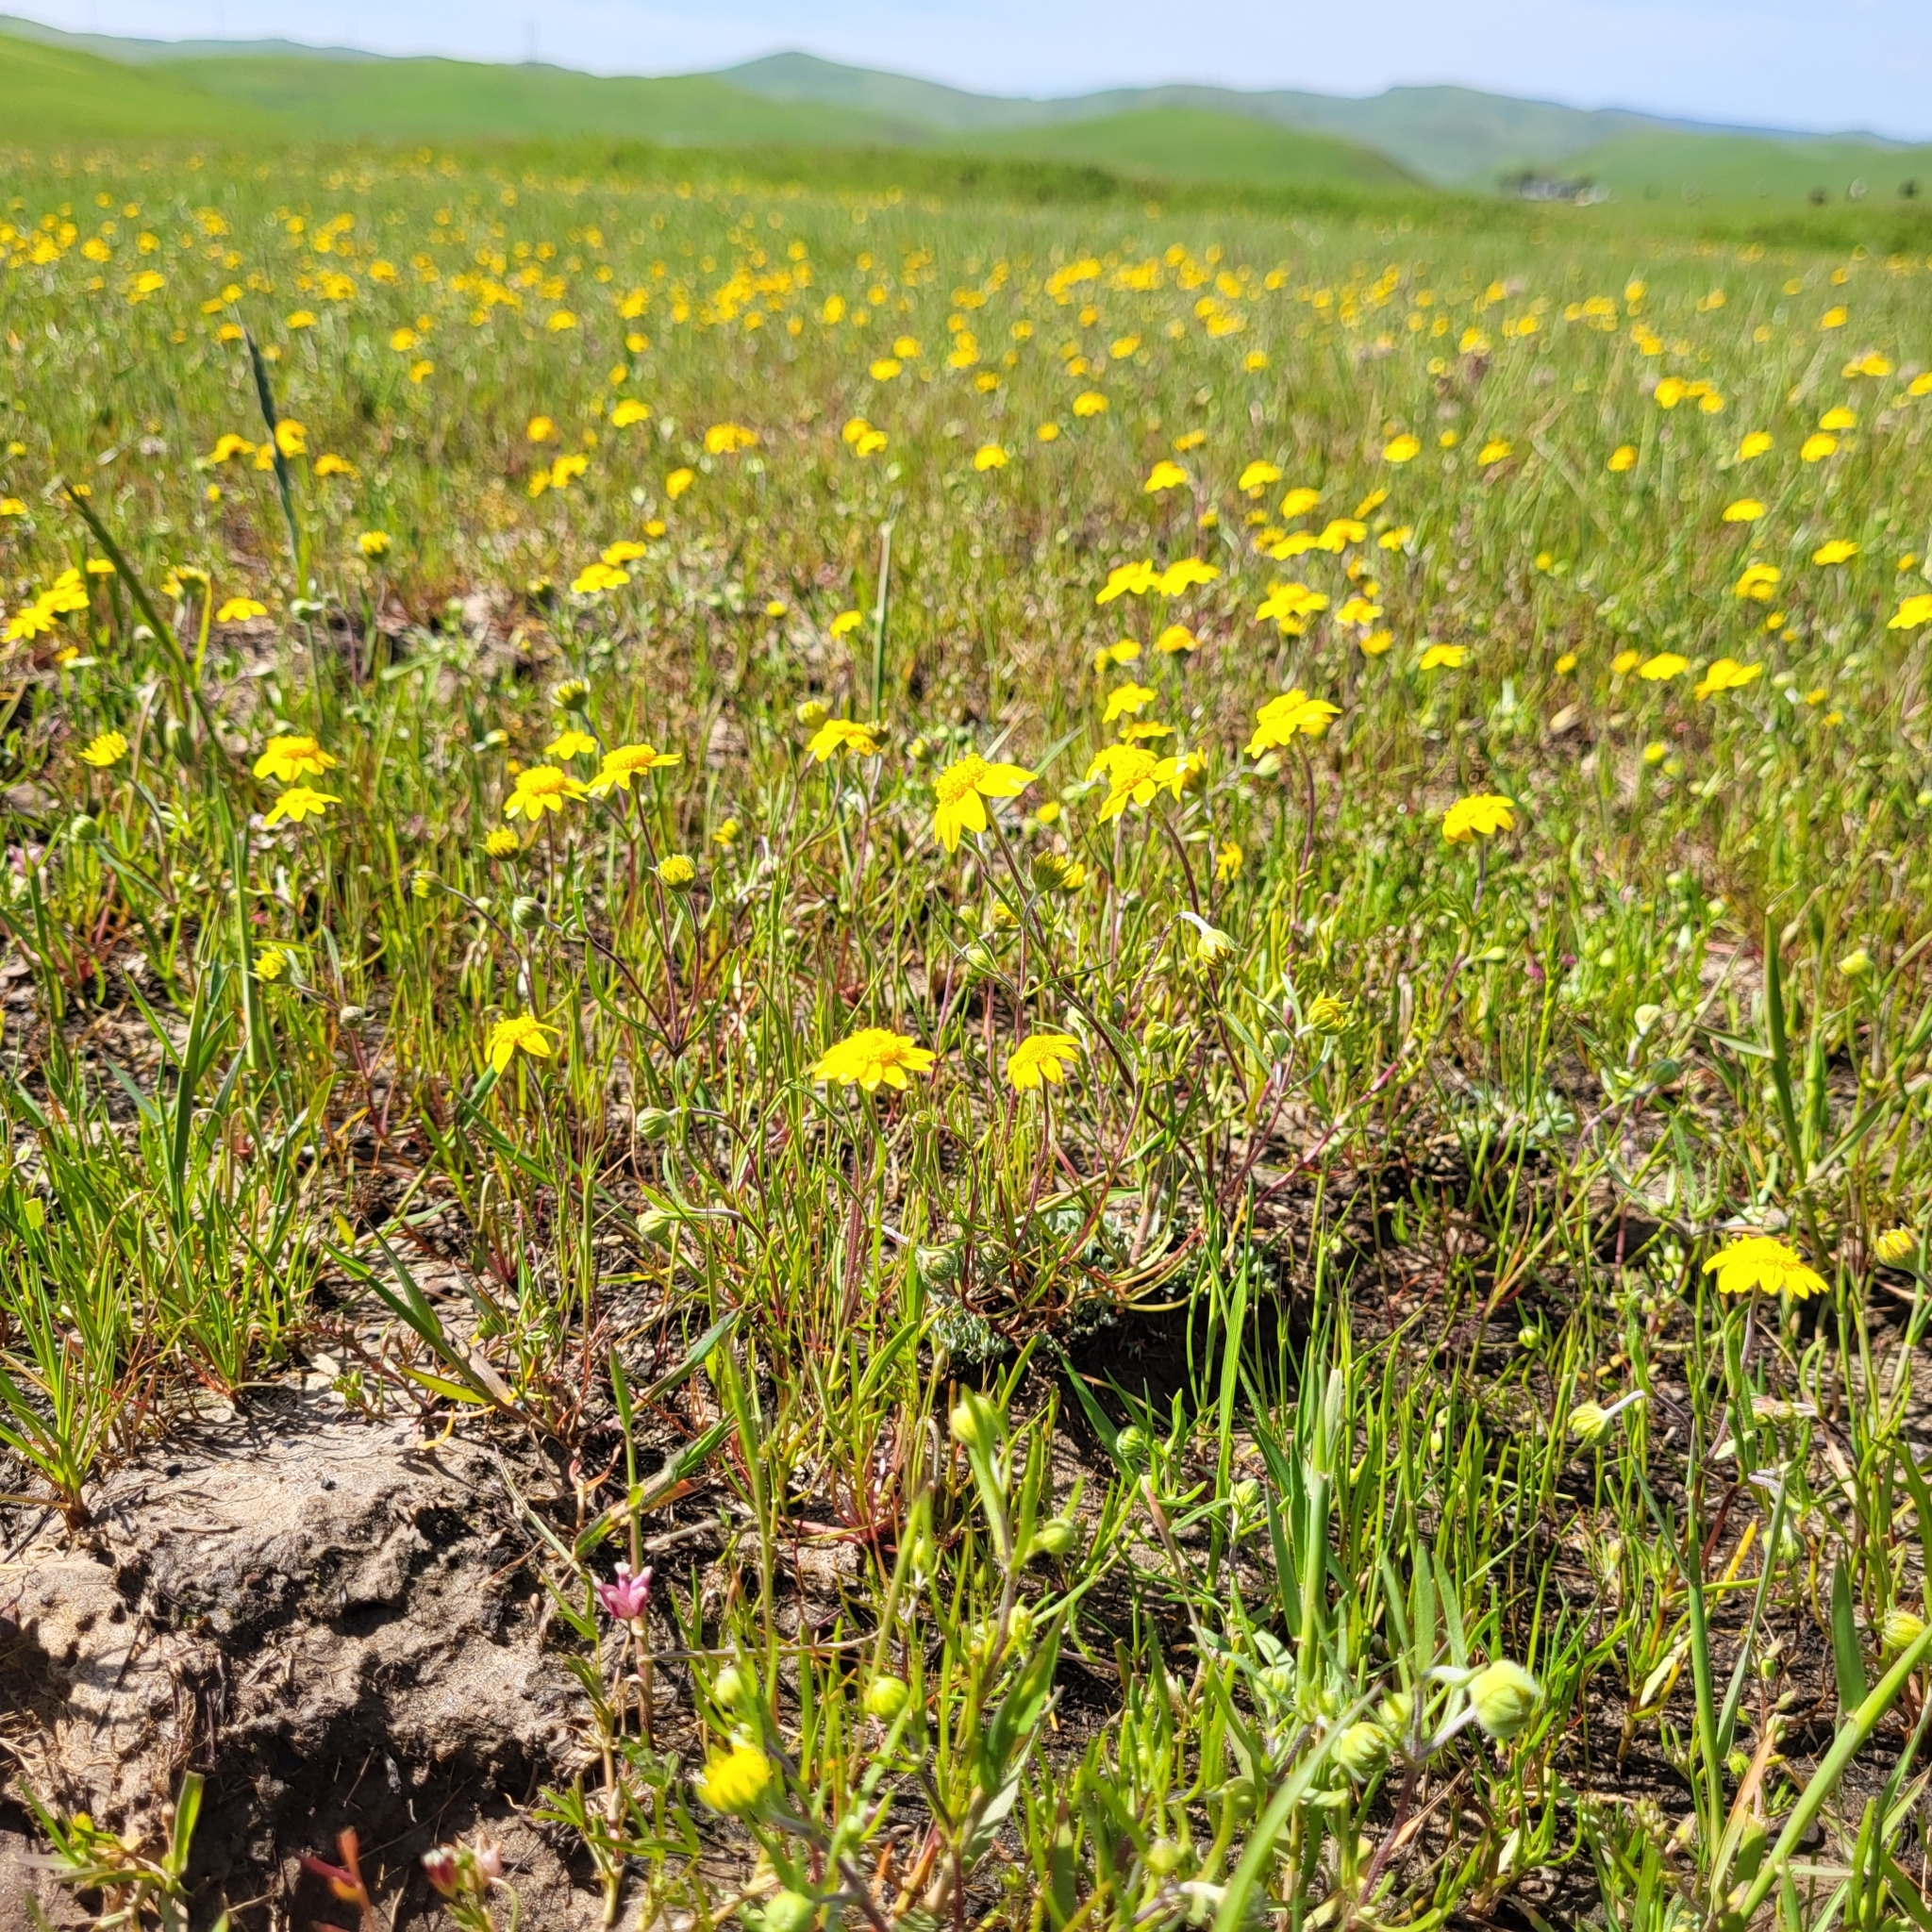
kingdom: Plantae
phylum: Tracheophyta
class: Magnoliopsida
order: Asterales
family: Asteraceae
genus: Lasthenia
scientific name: Lasthenia gracilis
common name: Common goldfields
